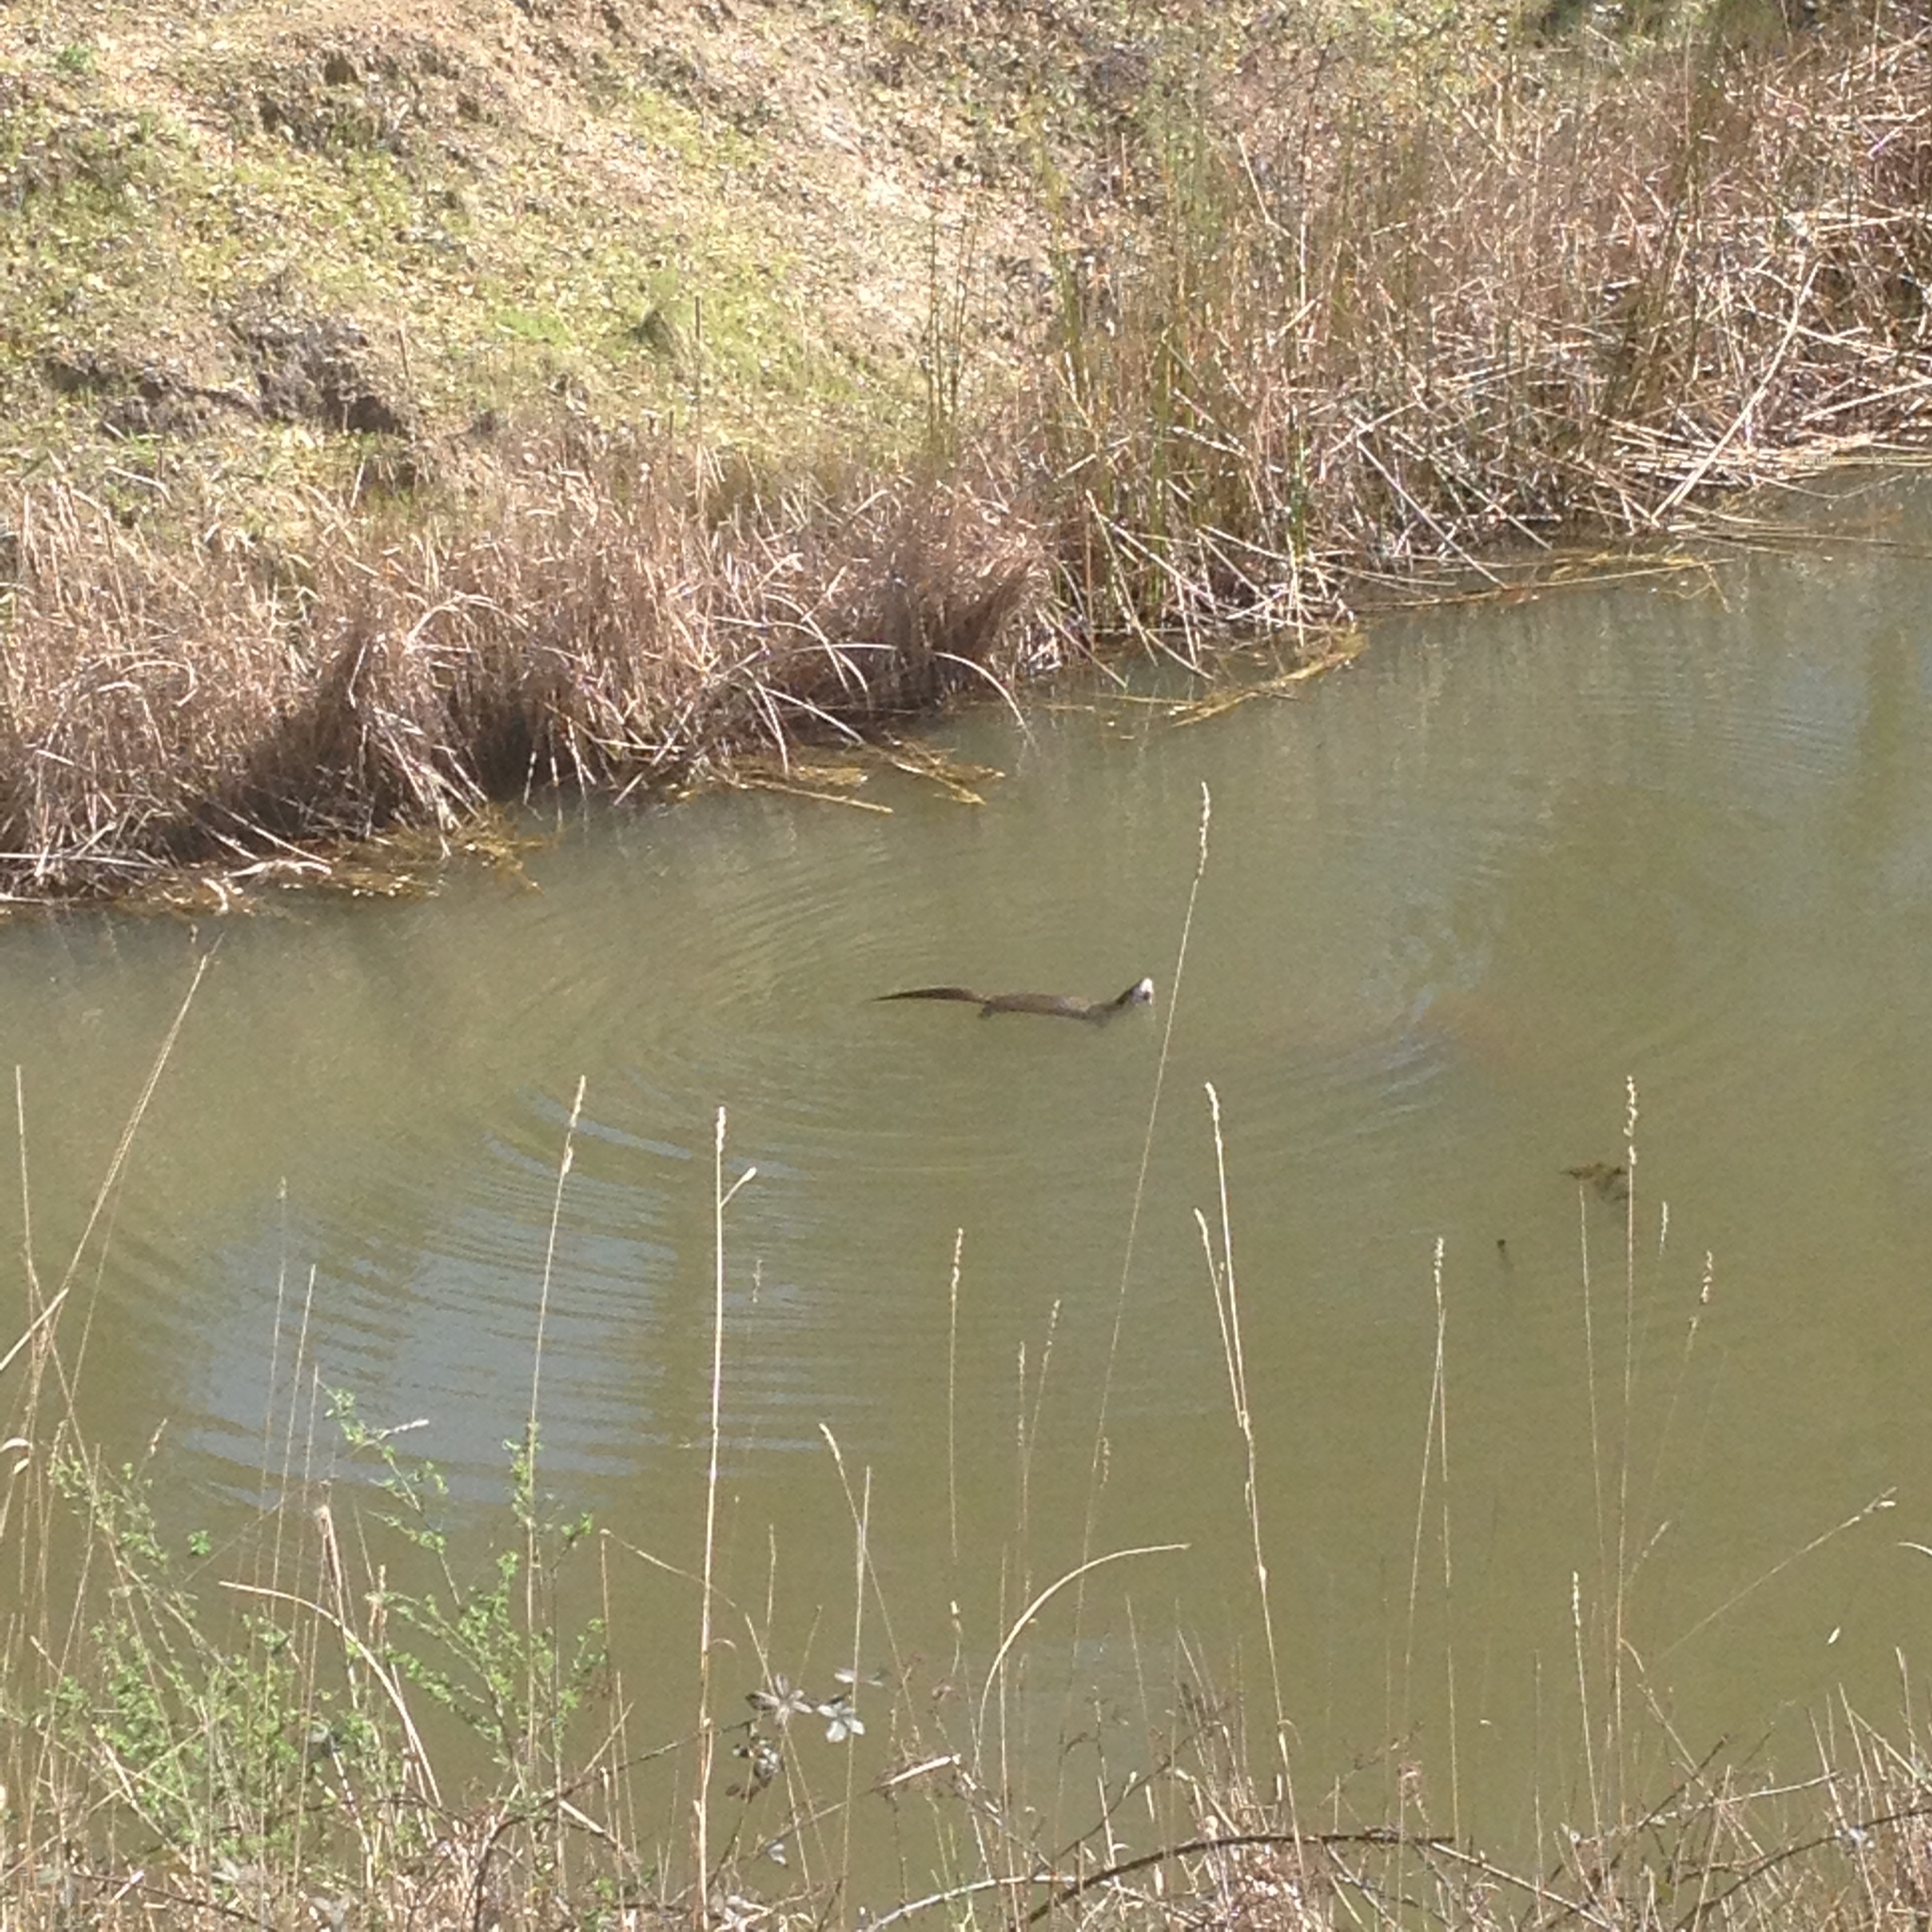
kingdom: Animalia
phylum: Chordata
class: Mammalia
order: Carnivora
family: Mustelidae
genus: Lontra
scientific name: Lontra canadensis
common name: North american river otter
